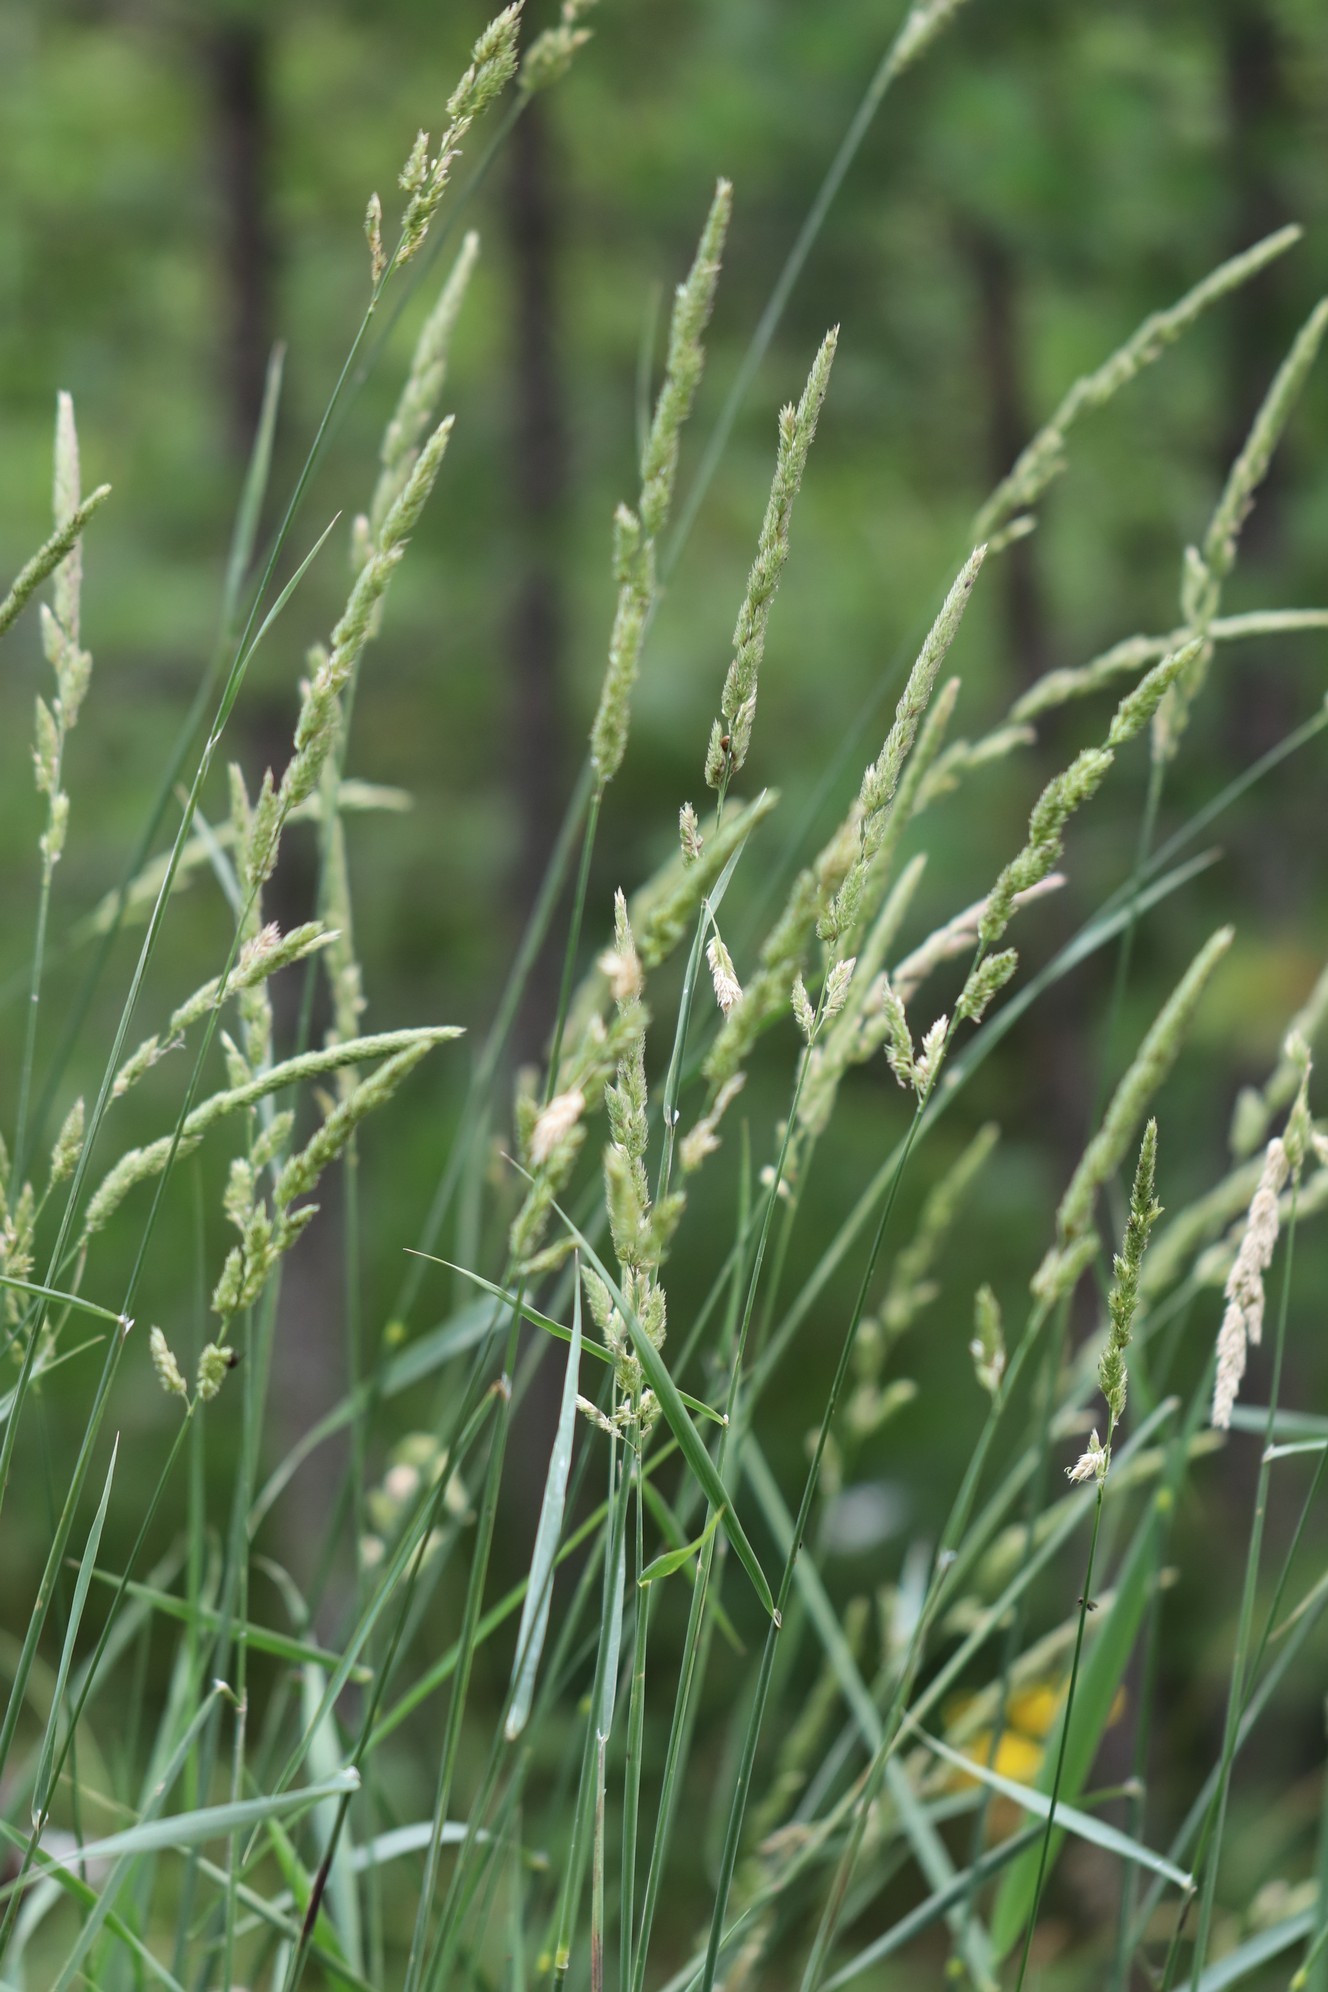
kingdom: Plantae
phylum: Tracheophyta
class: Liliopsida
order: Poales
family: Poaceae
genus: Phalaris
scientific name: Phalaris arundinacea
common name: Reed canary-grass
